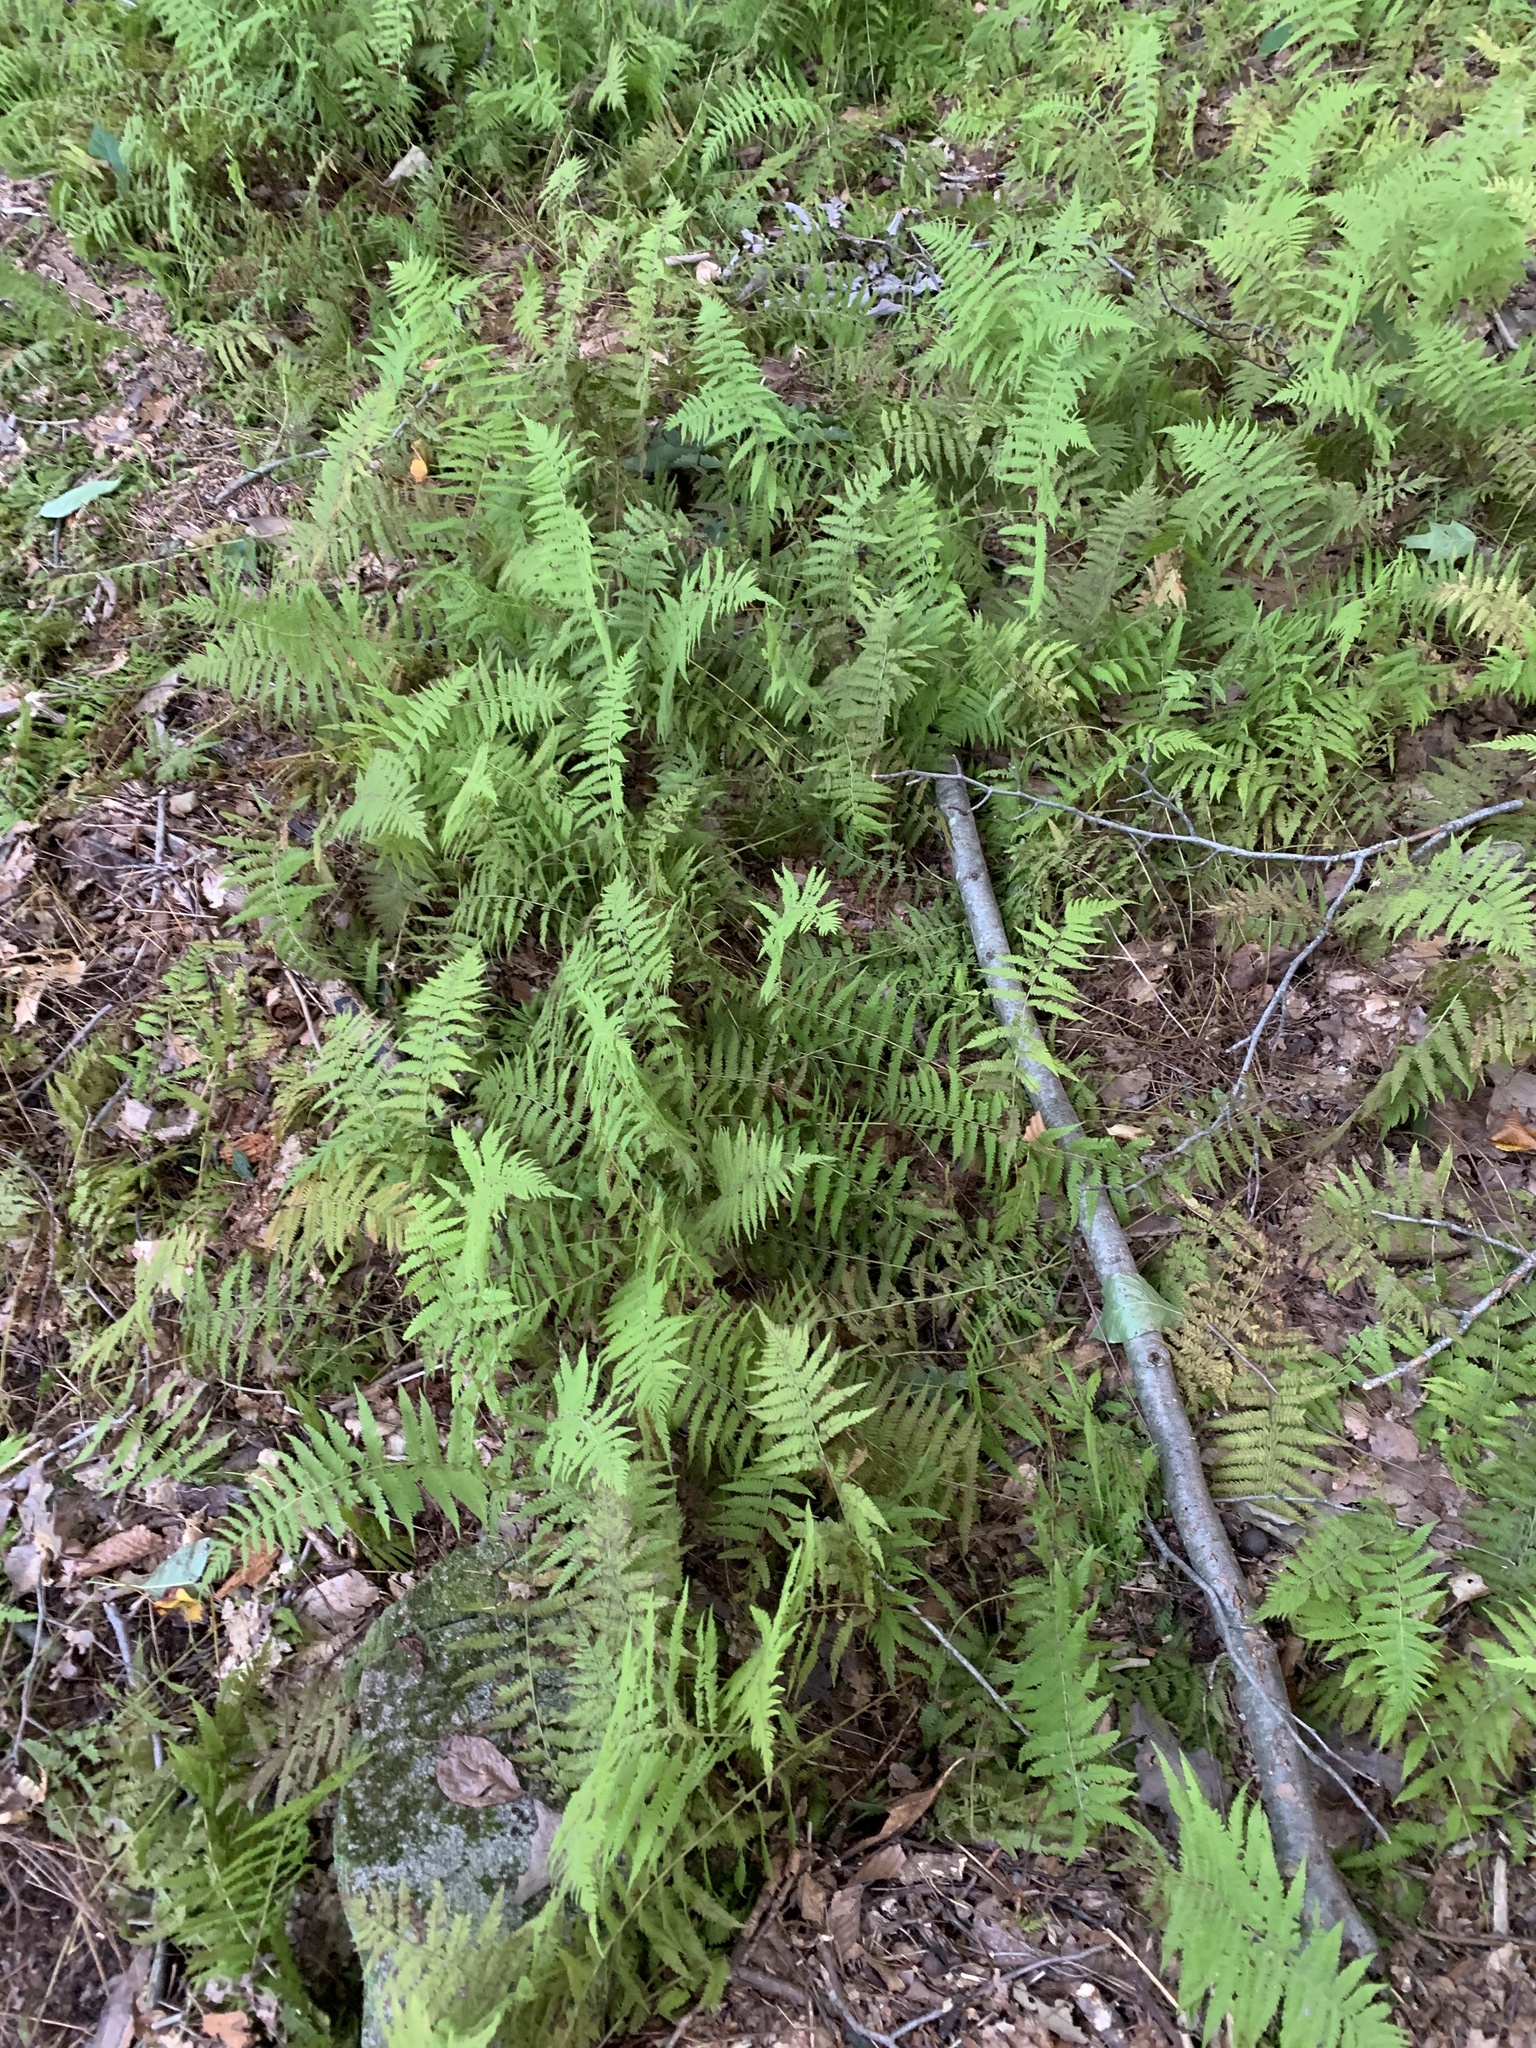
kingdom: Plantae
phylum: Tracheophyta
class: Polypodiopsida
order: Polypodiales
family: Thelypteridaceae
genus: Amauropelta
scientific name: Amauropelta noveboracensis
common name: New york fern
